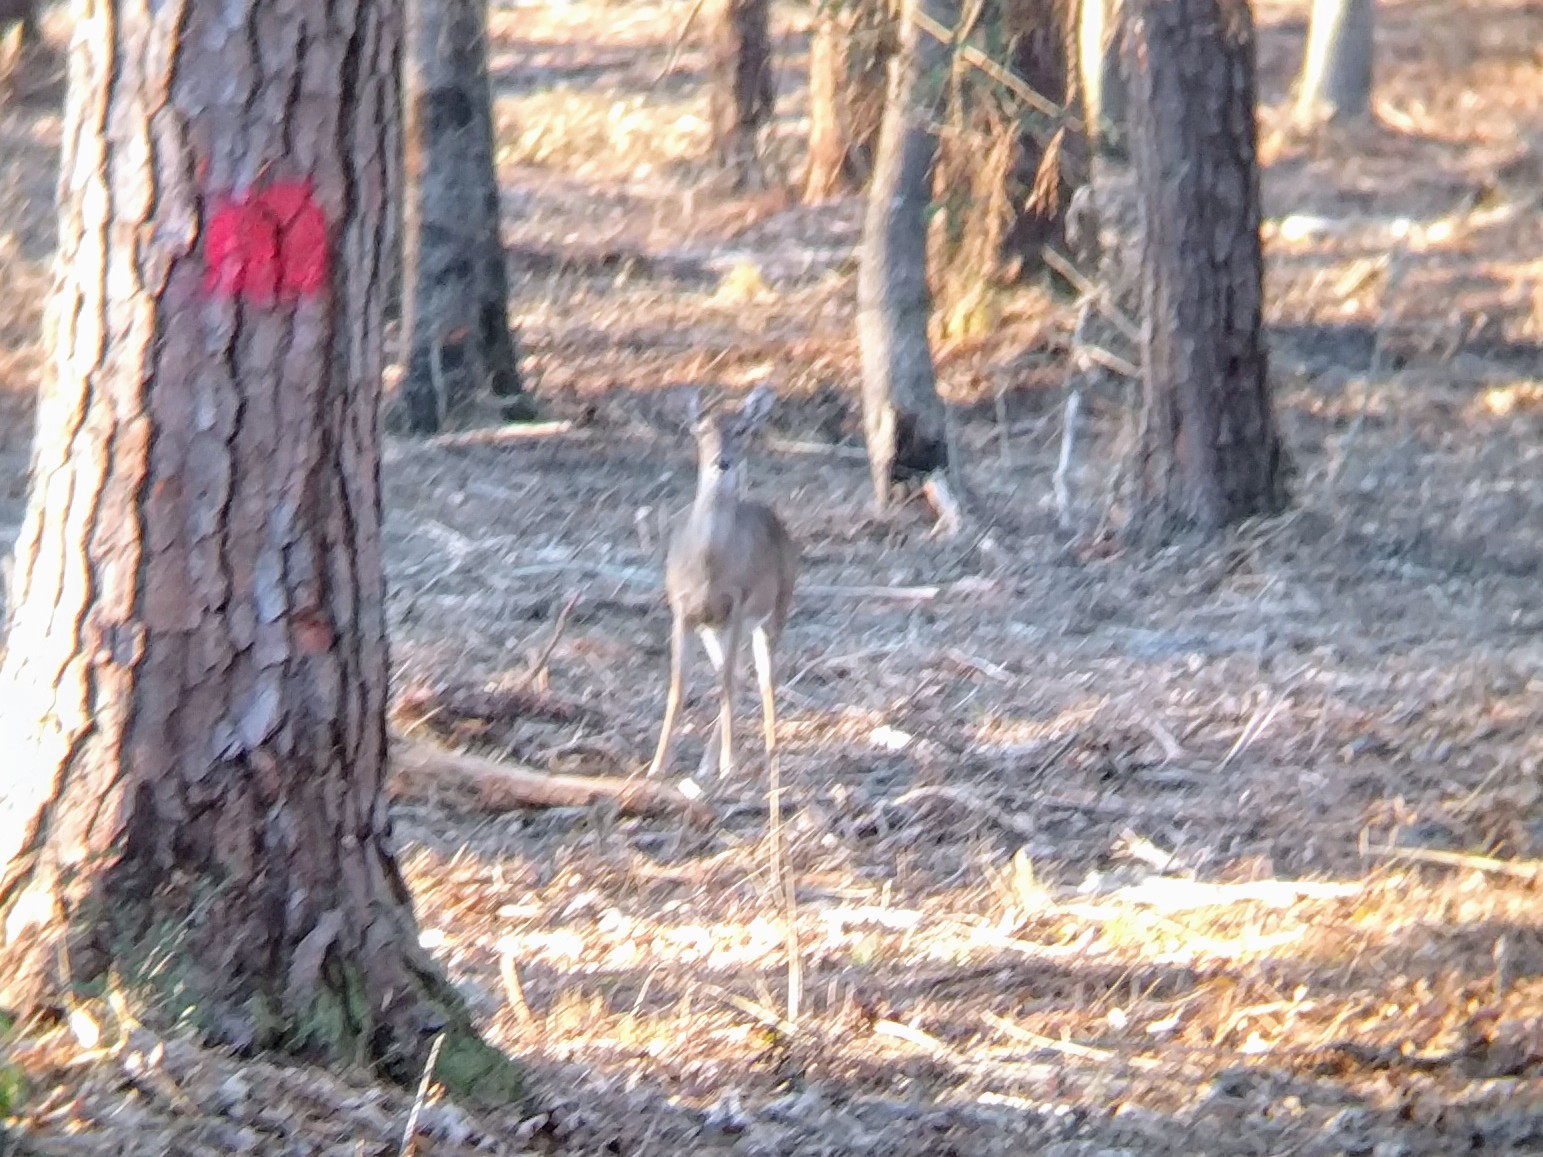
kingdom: Animalia
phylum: Chordata
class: Mammalia
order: Artiodactyla
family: Cervidae
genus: Odocoileus
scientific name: Odocoileus virginianus
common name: White-tailed deer
